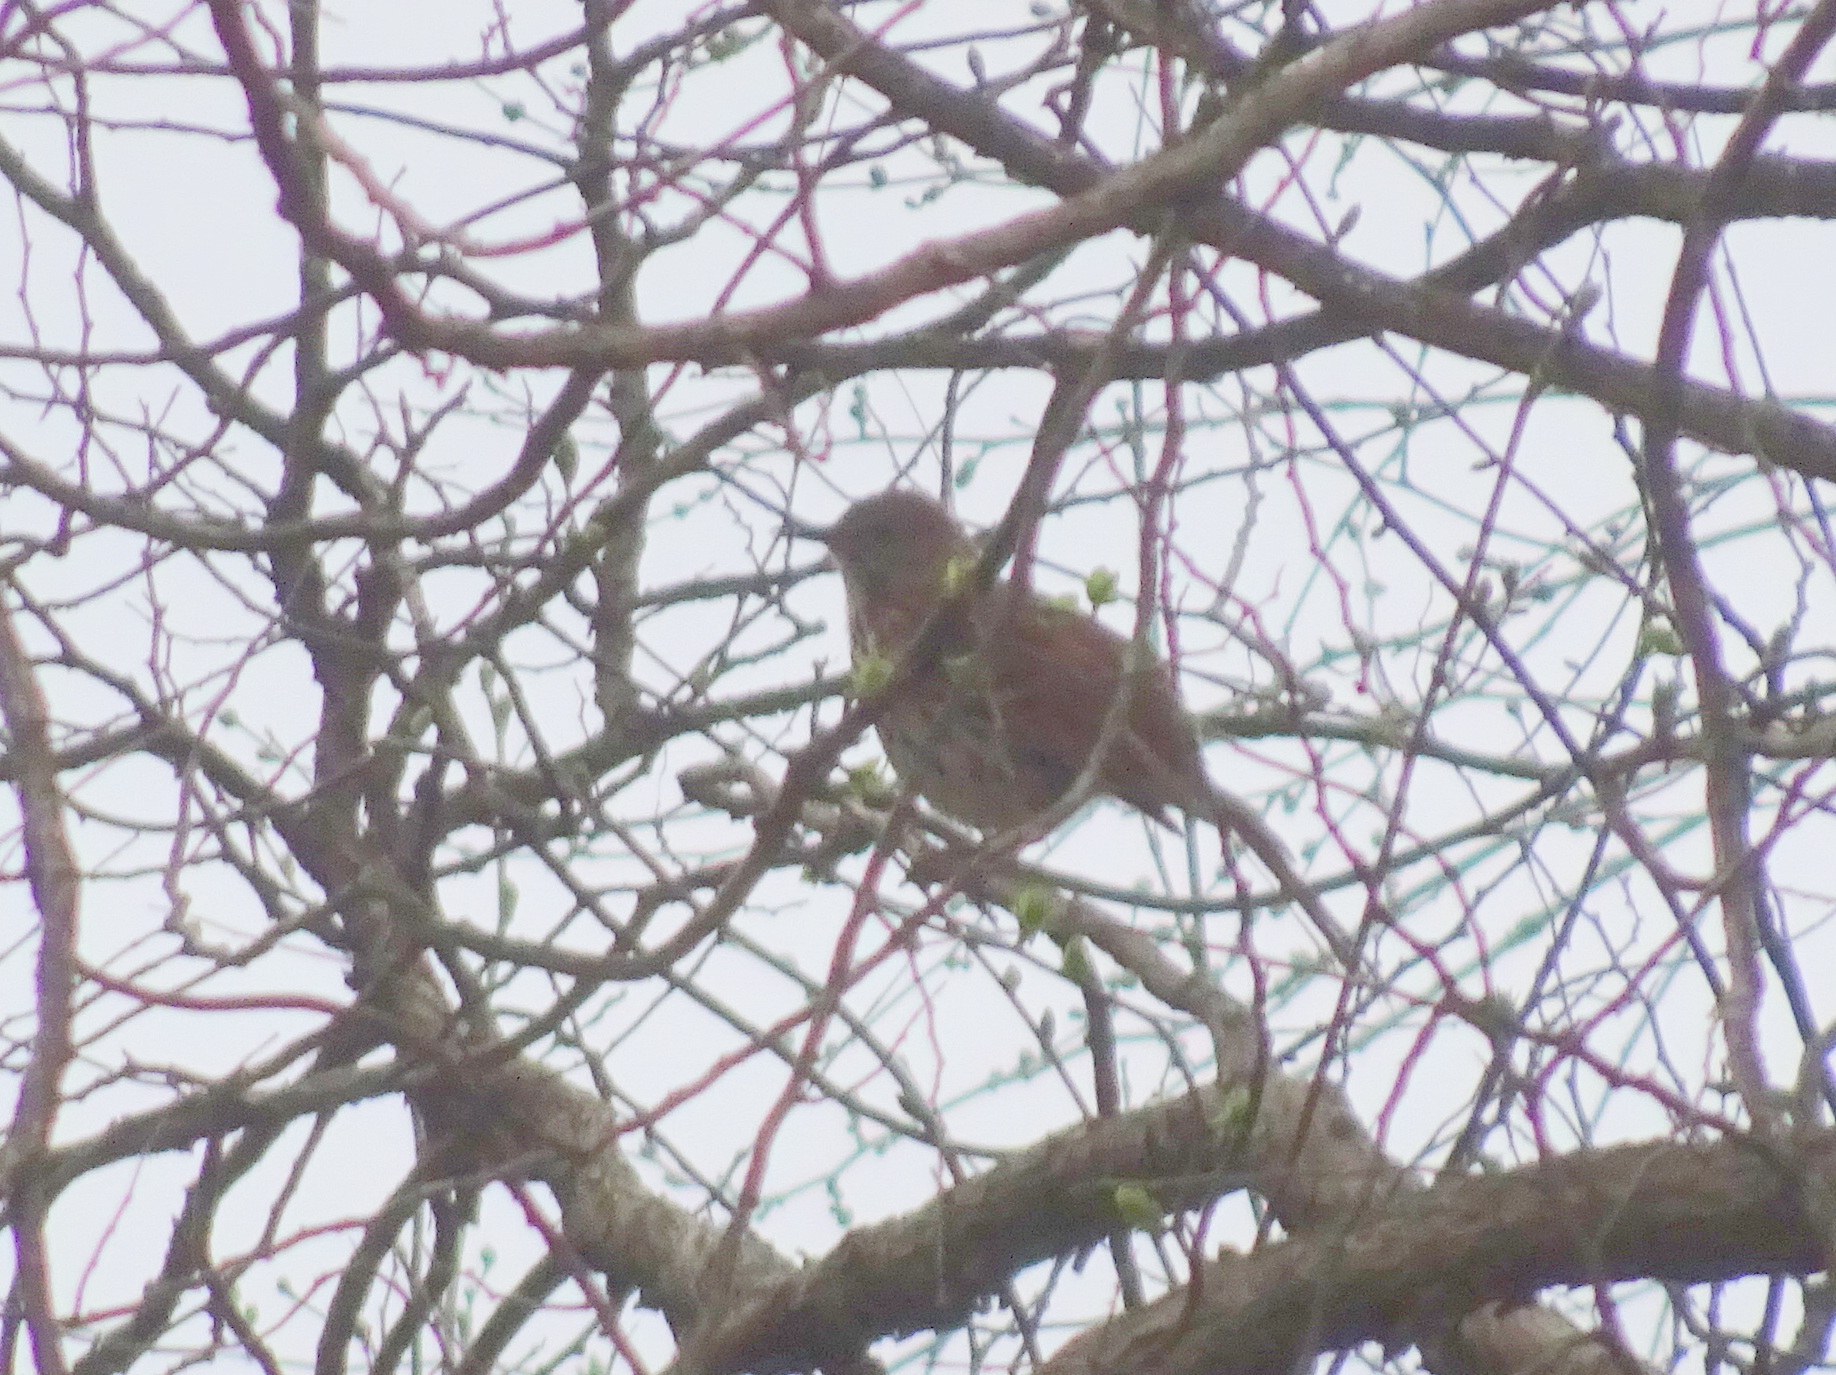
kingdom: Animalia
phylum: Chordata
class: Aves
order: Passeriformes
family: Mimidae
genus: Toxostoma
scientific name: Toxostoma rufum
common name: Brown thrasher
